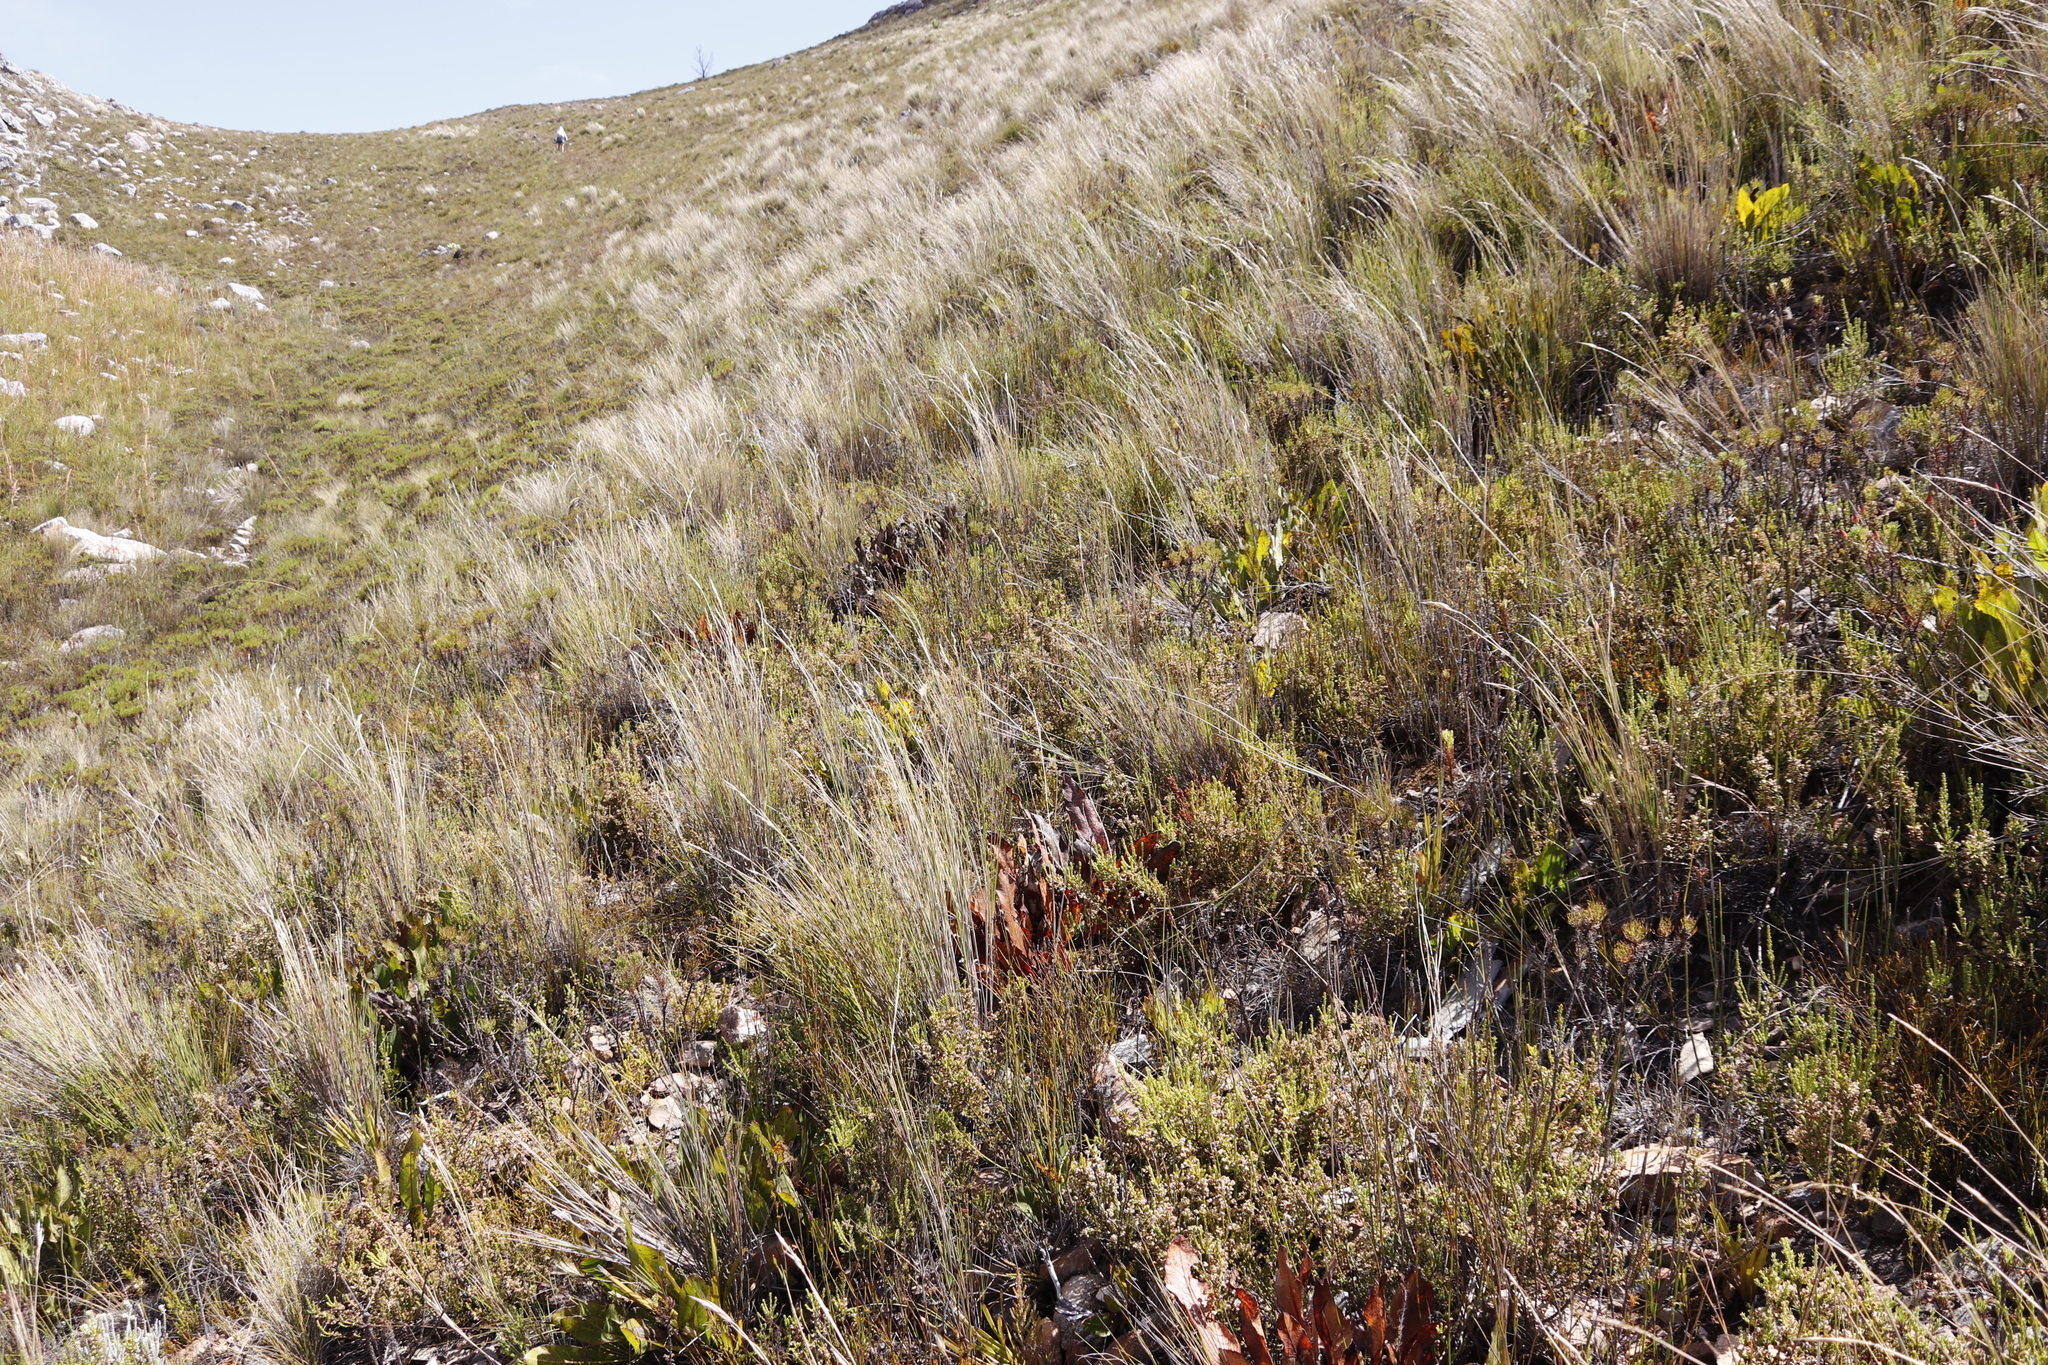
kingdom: Plantae
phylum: Tracheophyta
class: Magnoliopsida
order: Proteales
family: Proteaceae
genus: Protea
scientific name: Protea scolymocephala
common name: Thistle sugarbush
